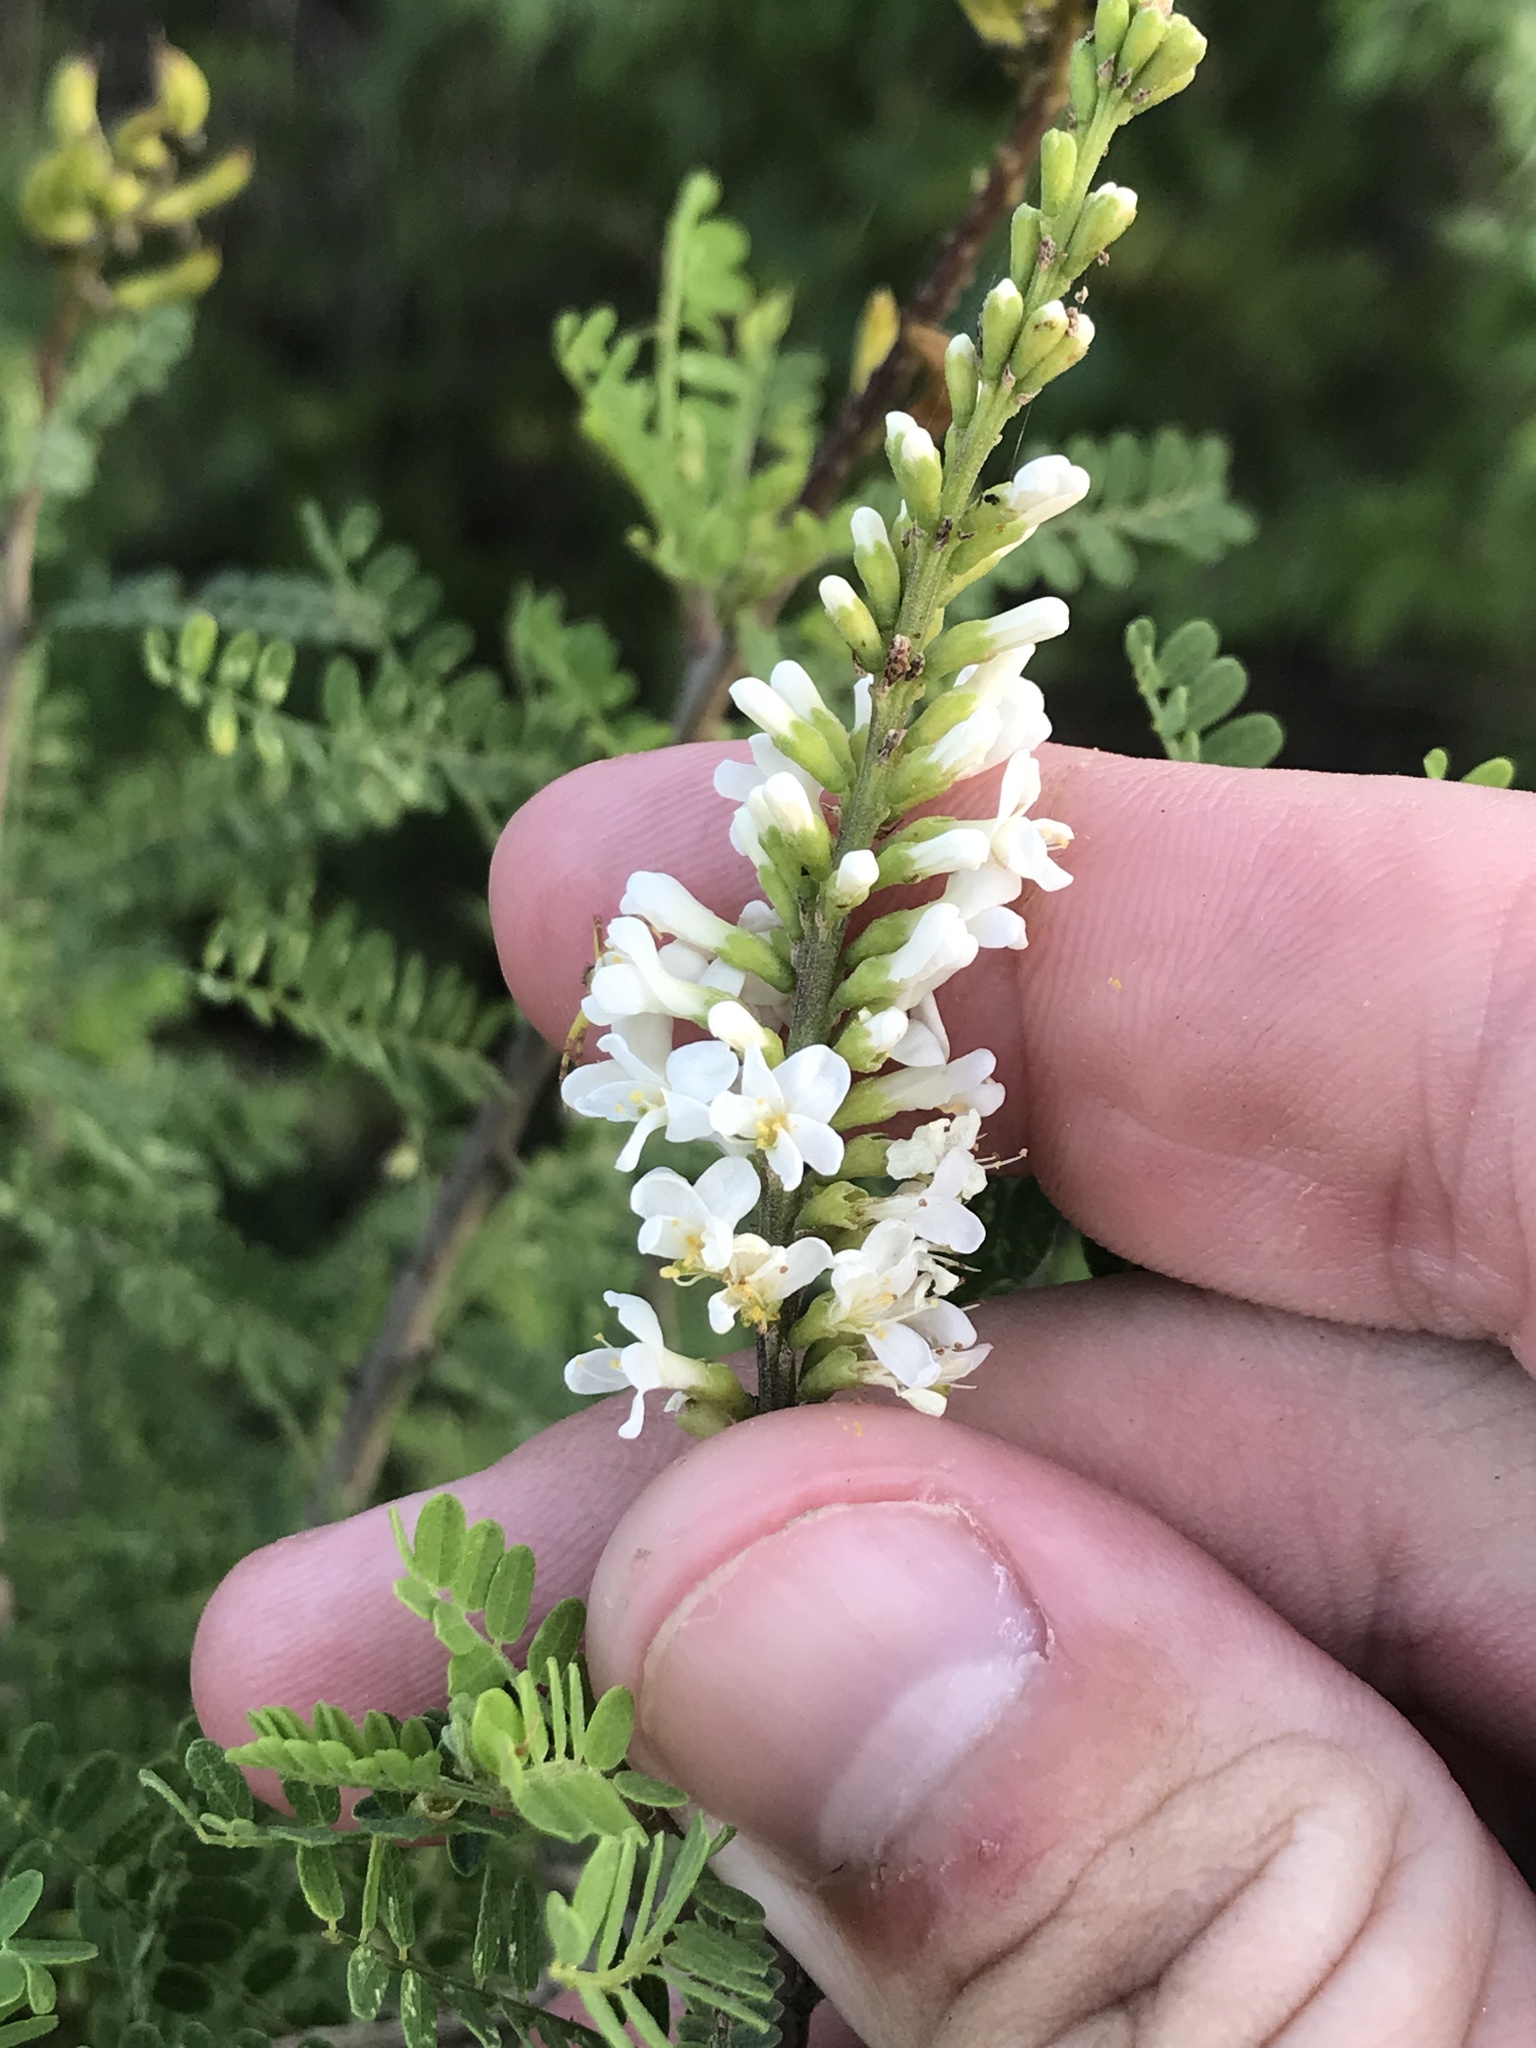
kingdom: Plantae
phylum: Tracheophyta
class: Magnoliopsida
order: Fabales
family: Fabaceae
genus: Eysenhardtia
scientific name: Eysenhardtia texana
